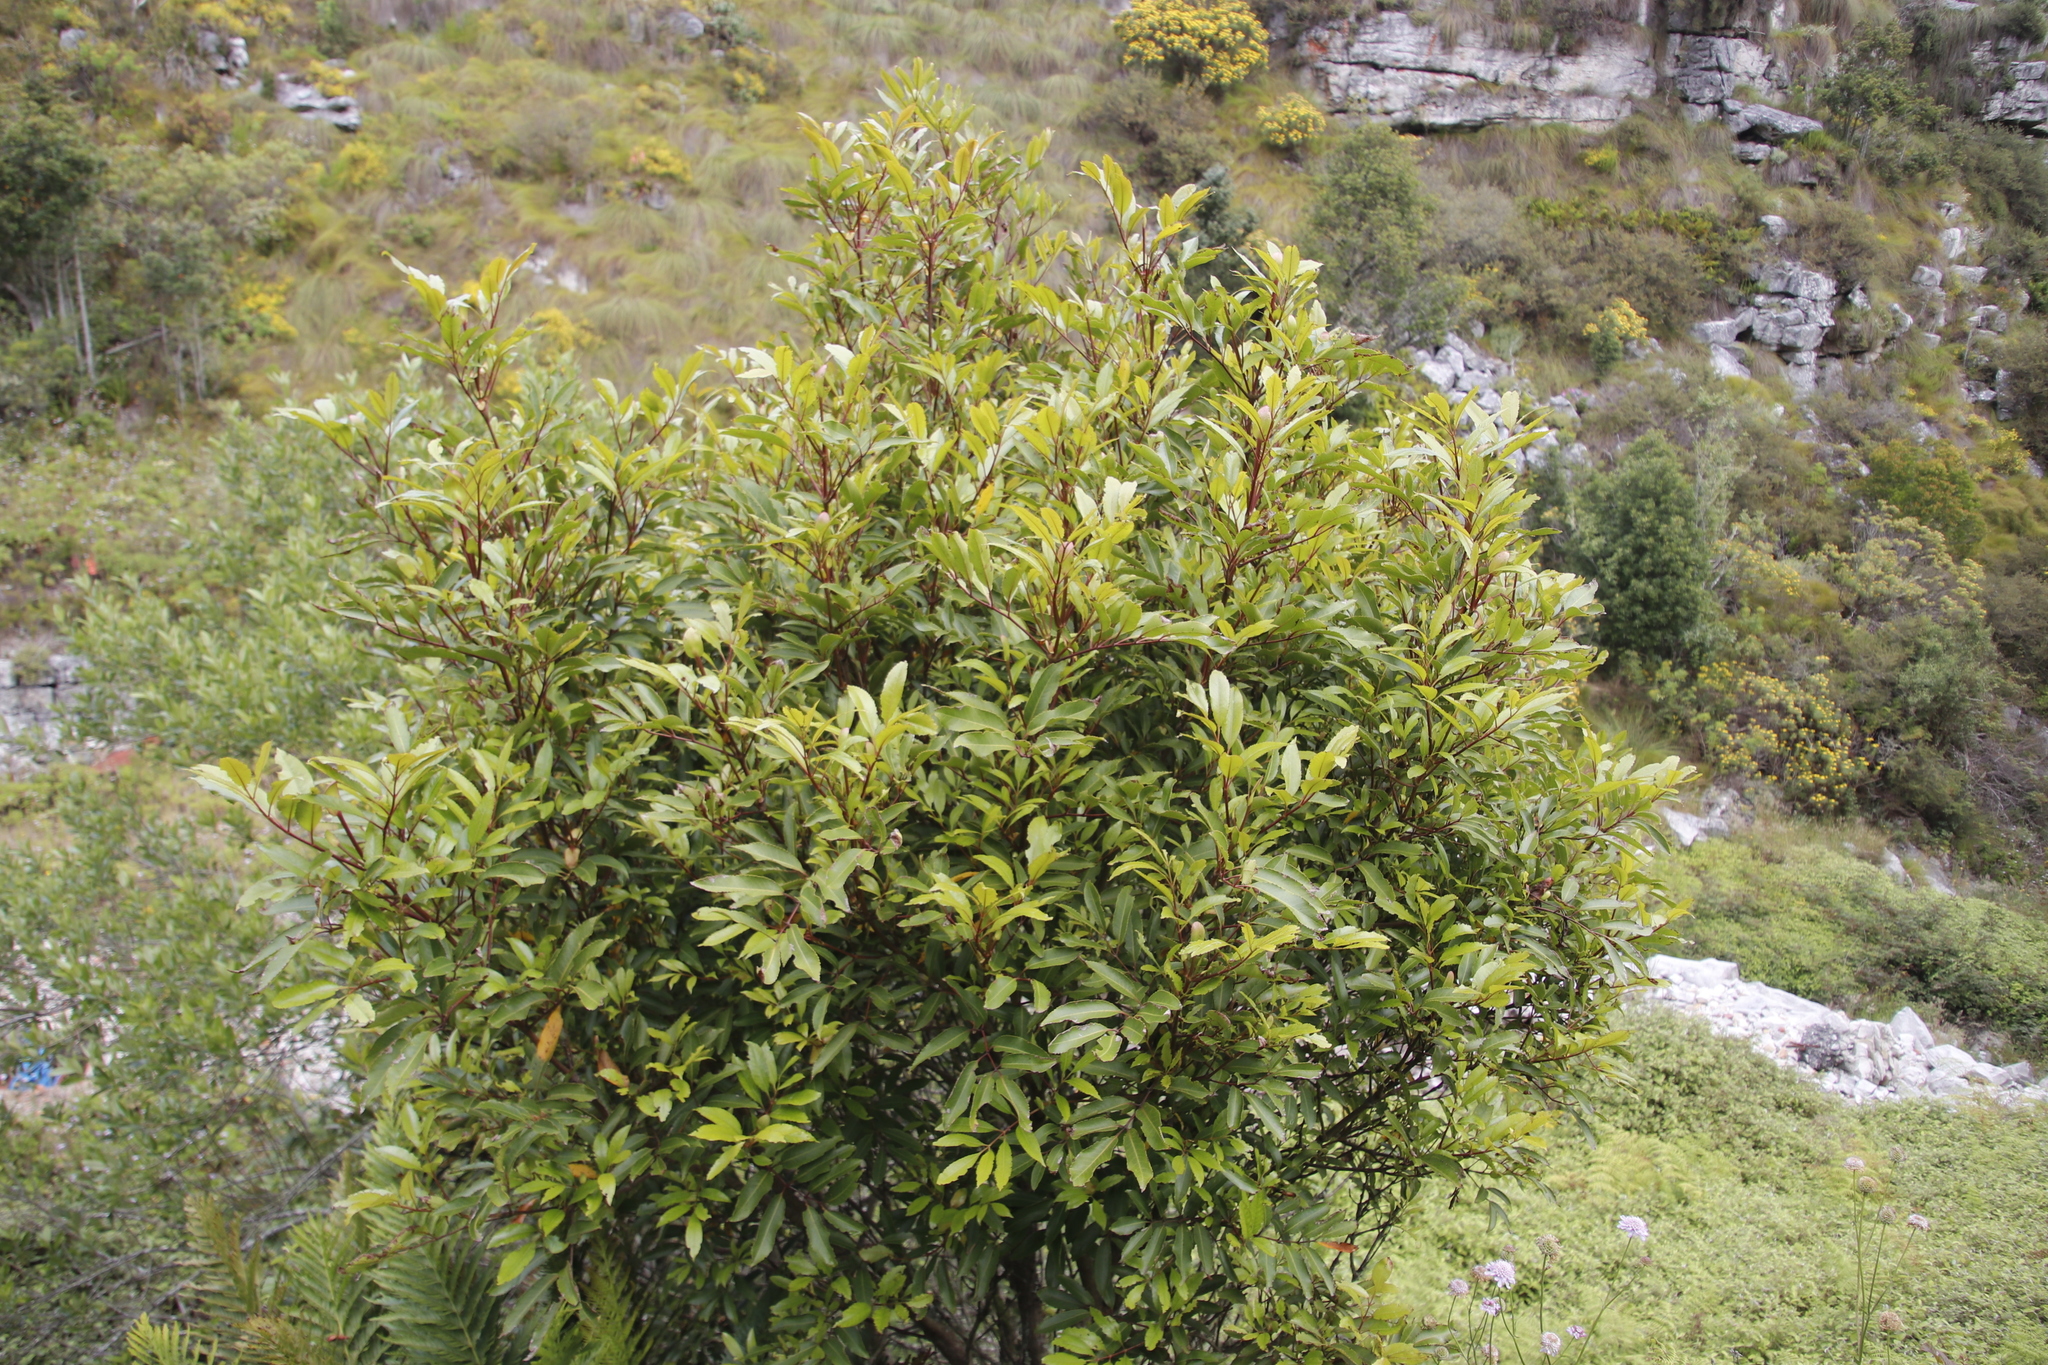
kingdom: Plantae
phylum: Tracheophyta
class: Magnoliopsida
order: Oxalidales
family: Cunoniaceae
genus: Cunonia
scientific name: Cunonia capensis
